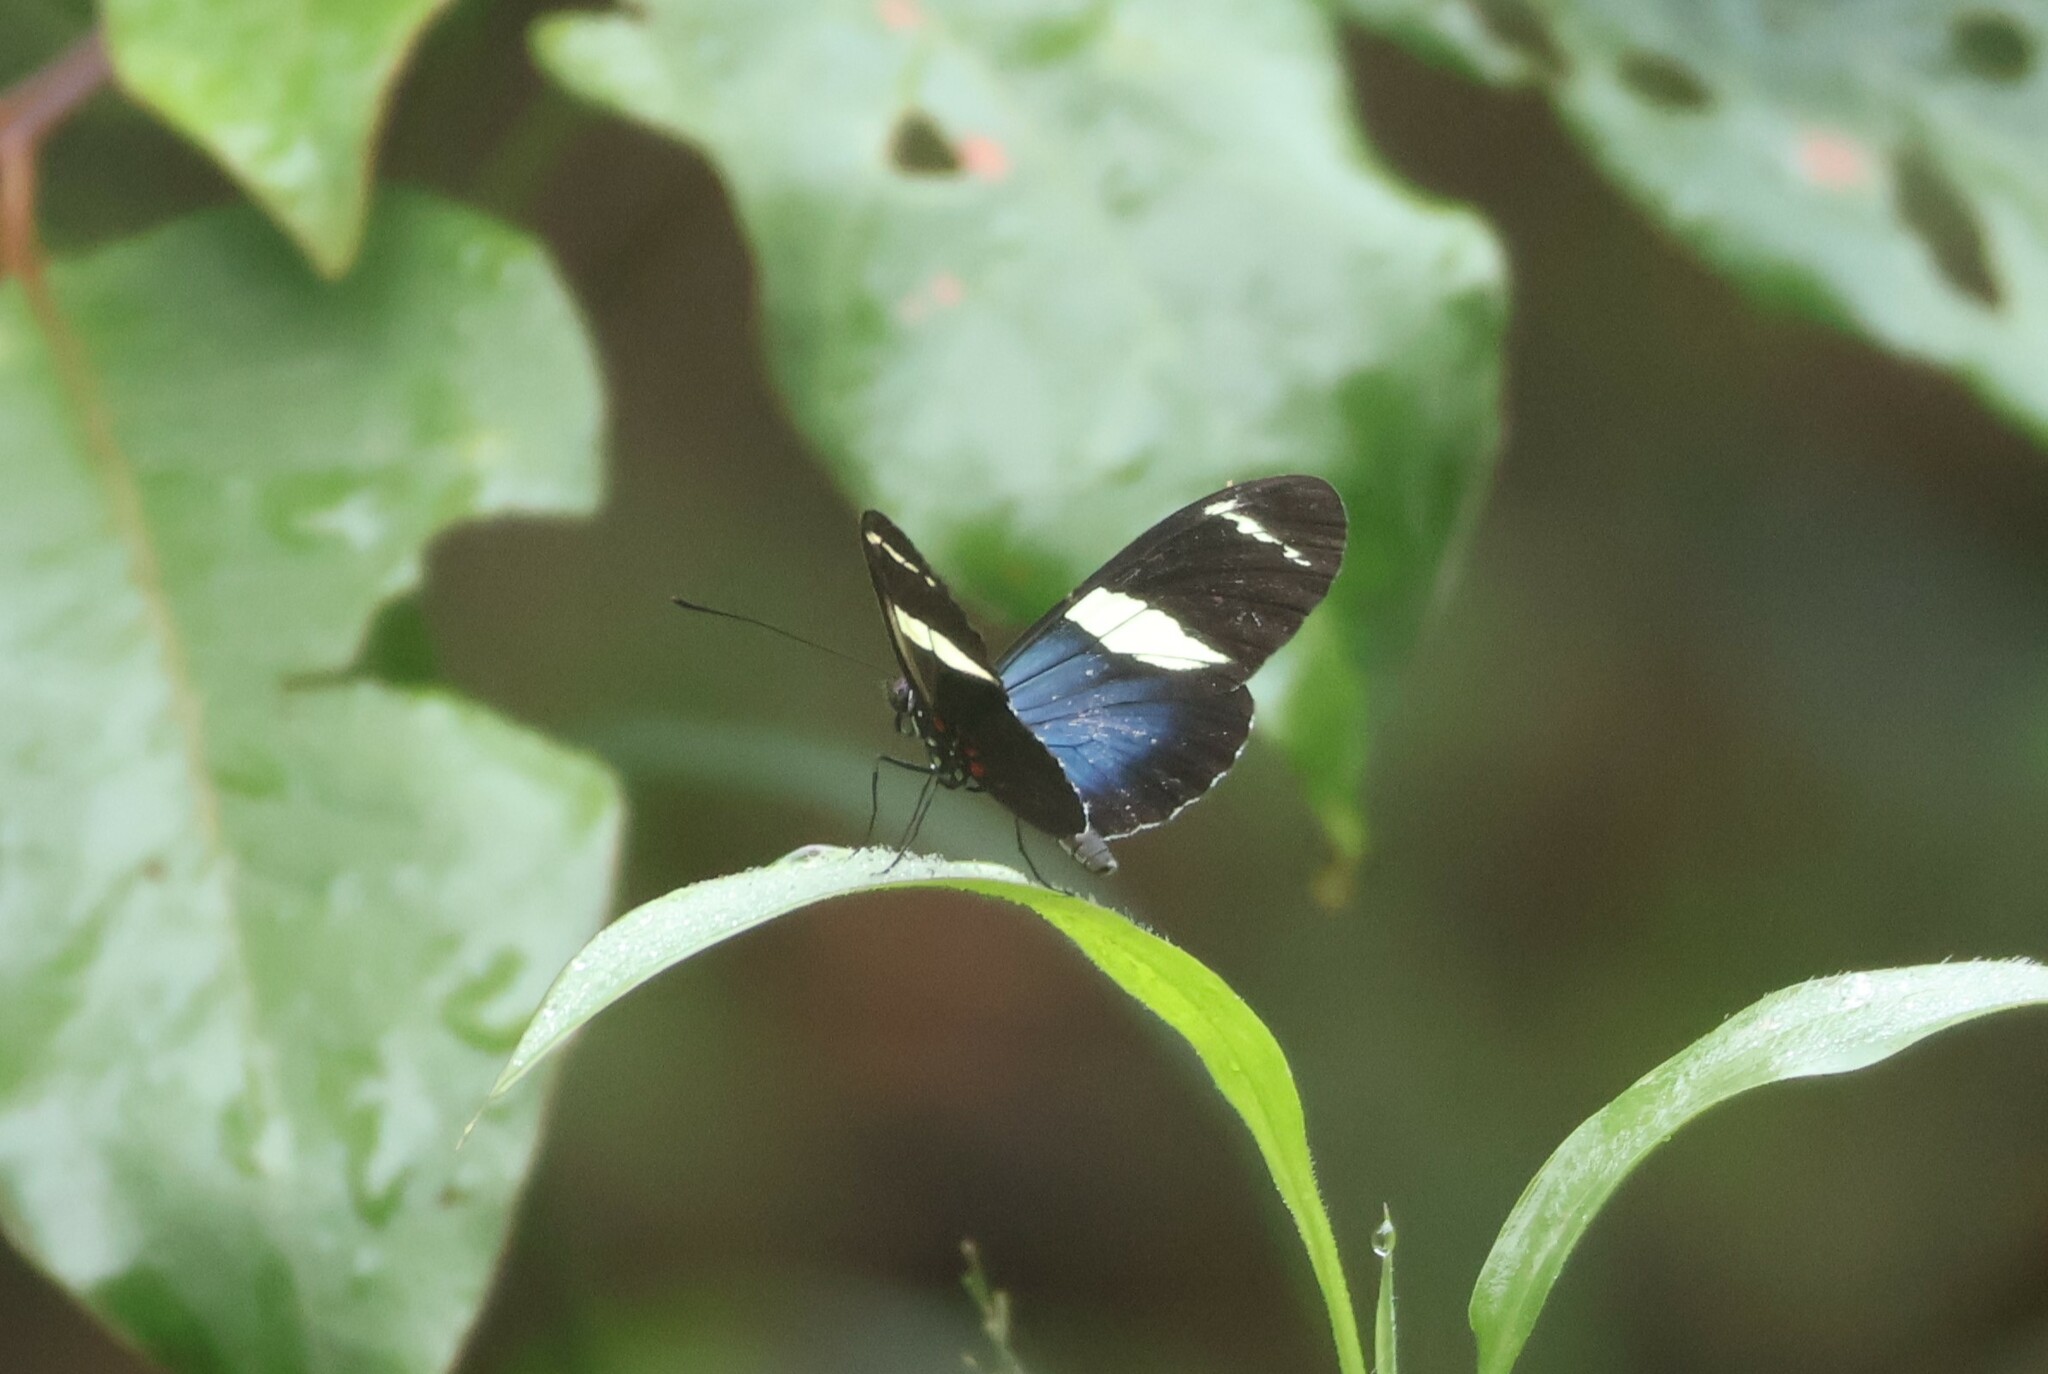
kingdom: Animalia
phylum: Arthropoda
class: Insecta
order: Lepidoptera
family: Nymphalidae
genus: Heliconius
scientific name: Heliconius sara
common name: Sara longwing
